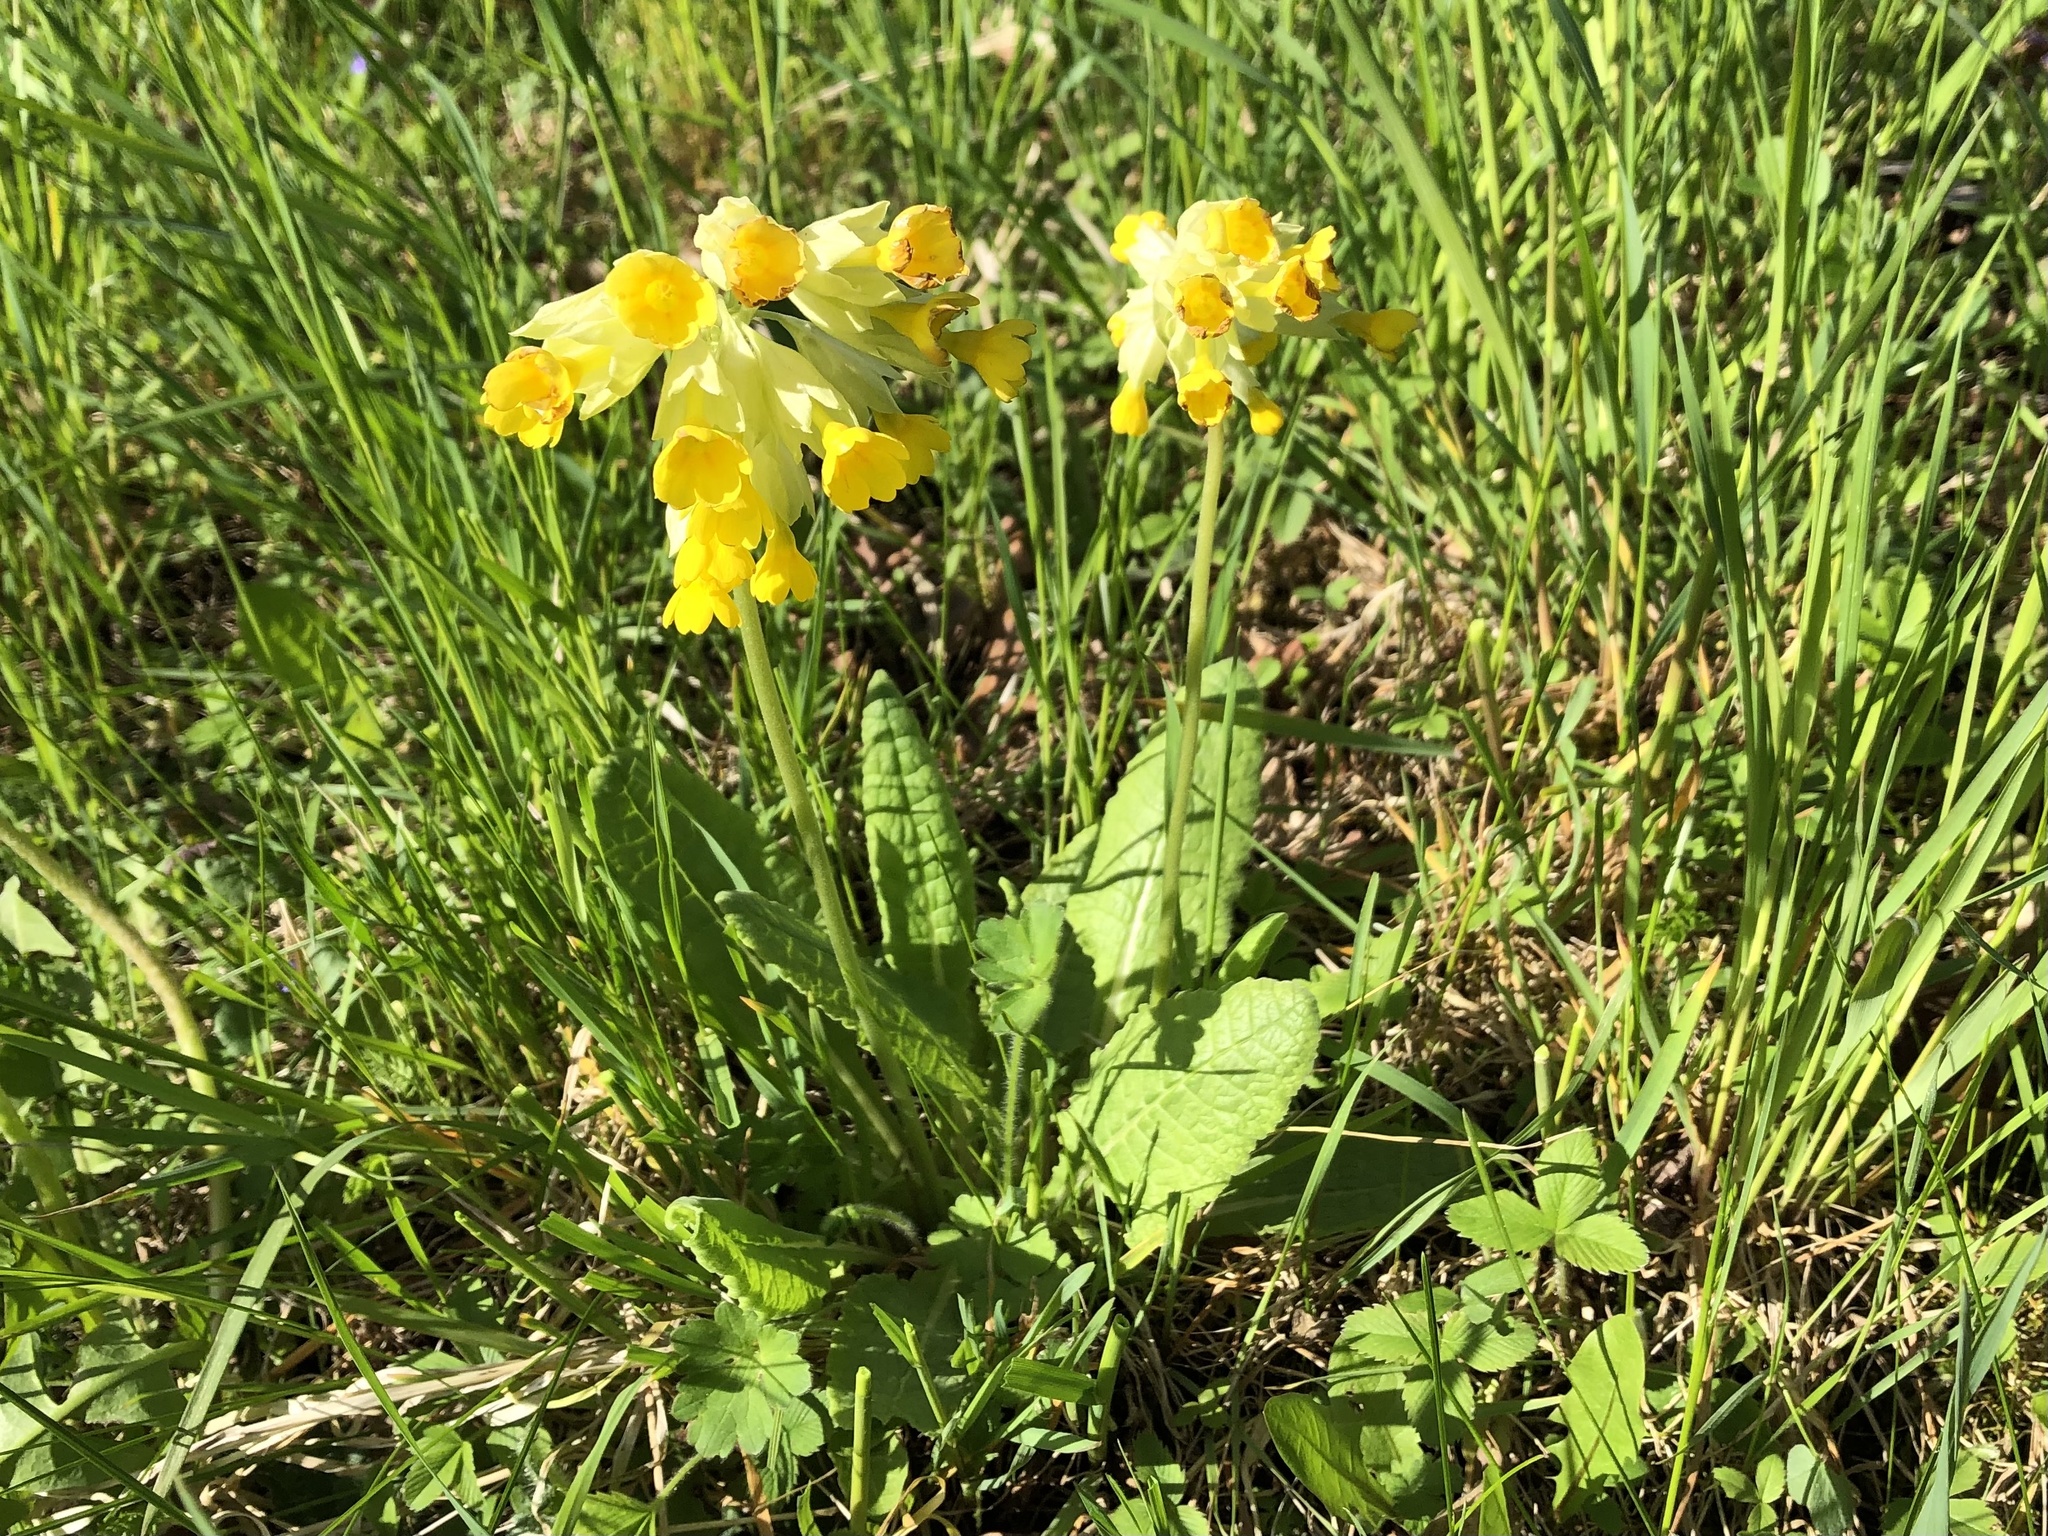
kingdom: Plantae
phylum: Tracheophyta
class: Magnoliopsida
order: Ericales
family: Primulaceae
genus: Primula
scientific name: Primula veris
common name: Cowslip
